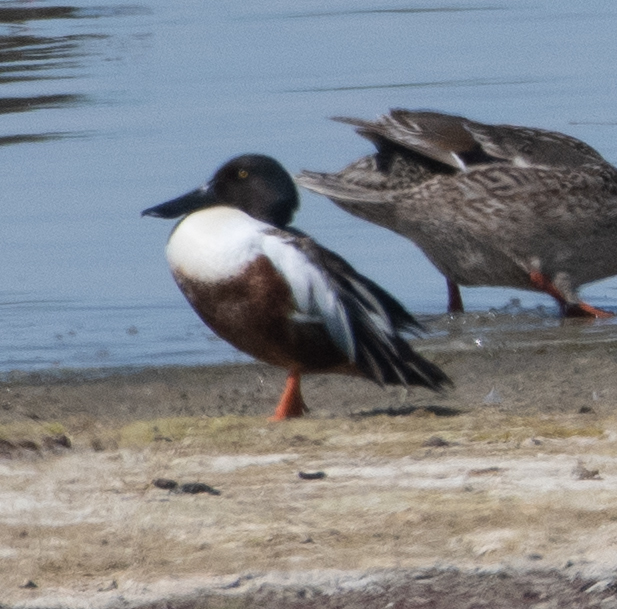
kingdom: Animalia
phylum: Chordata
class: Aves
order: Anseriformes
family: Anatidae
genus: Spatula
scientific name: Spatula clypeata
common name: Northern shoveler
